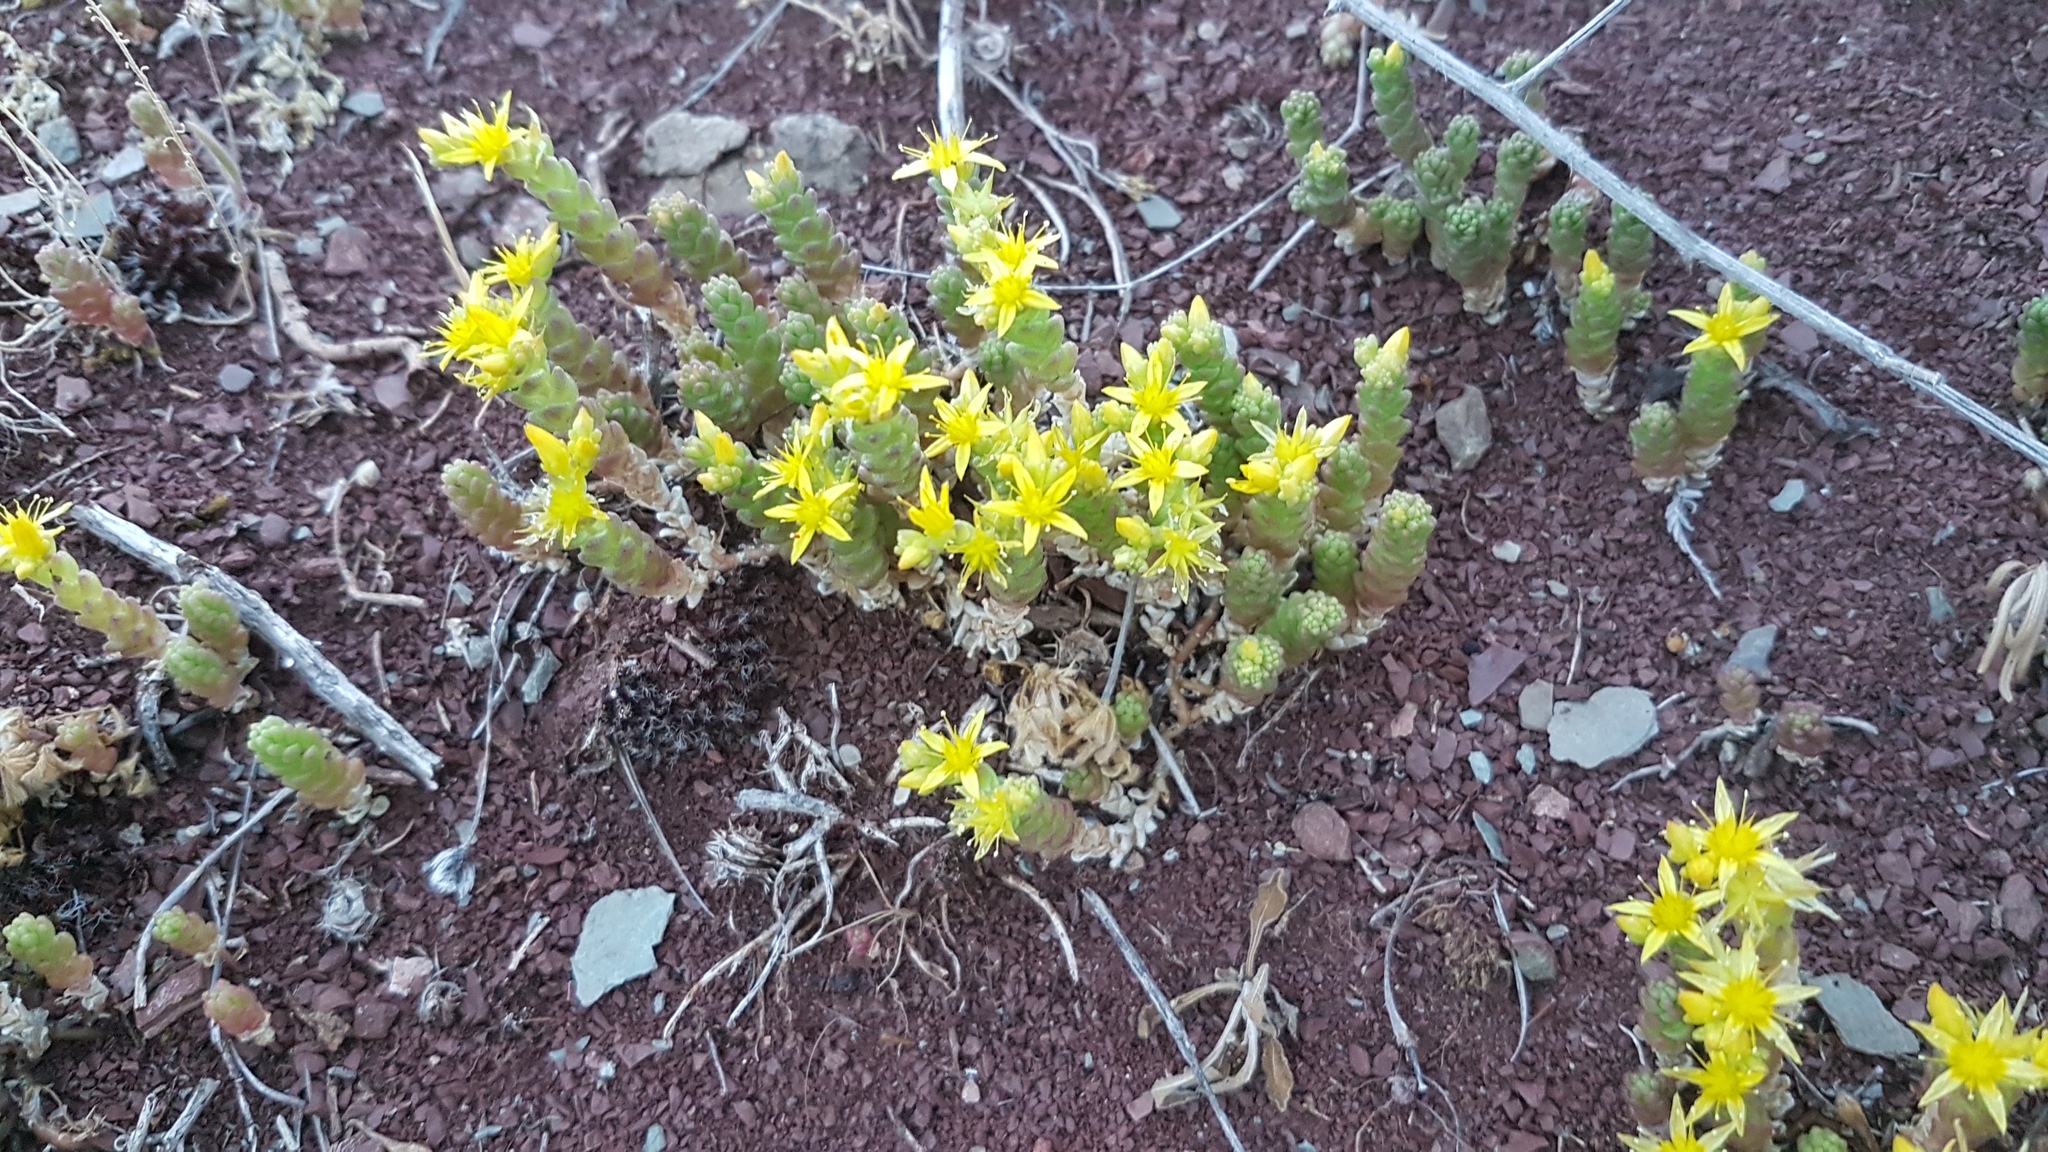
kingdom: Plantae
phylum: Tracheophyta
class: Magnoliopsida
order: Saxifragales
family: Crassulaceae
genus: Sedum
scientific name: Sedum acre
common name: Biting stonecrop
